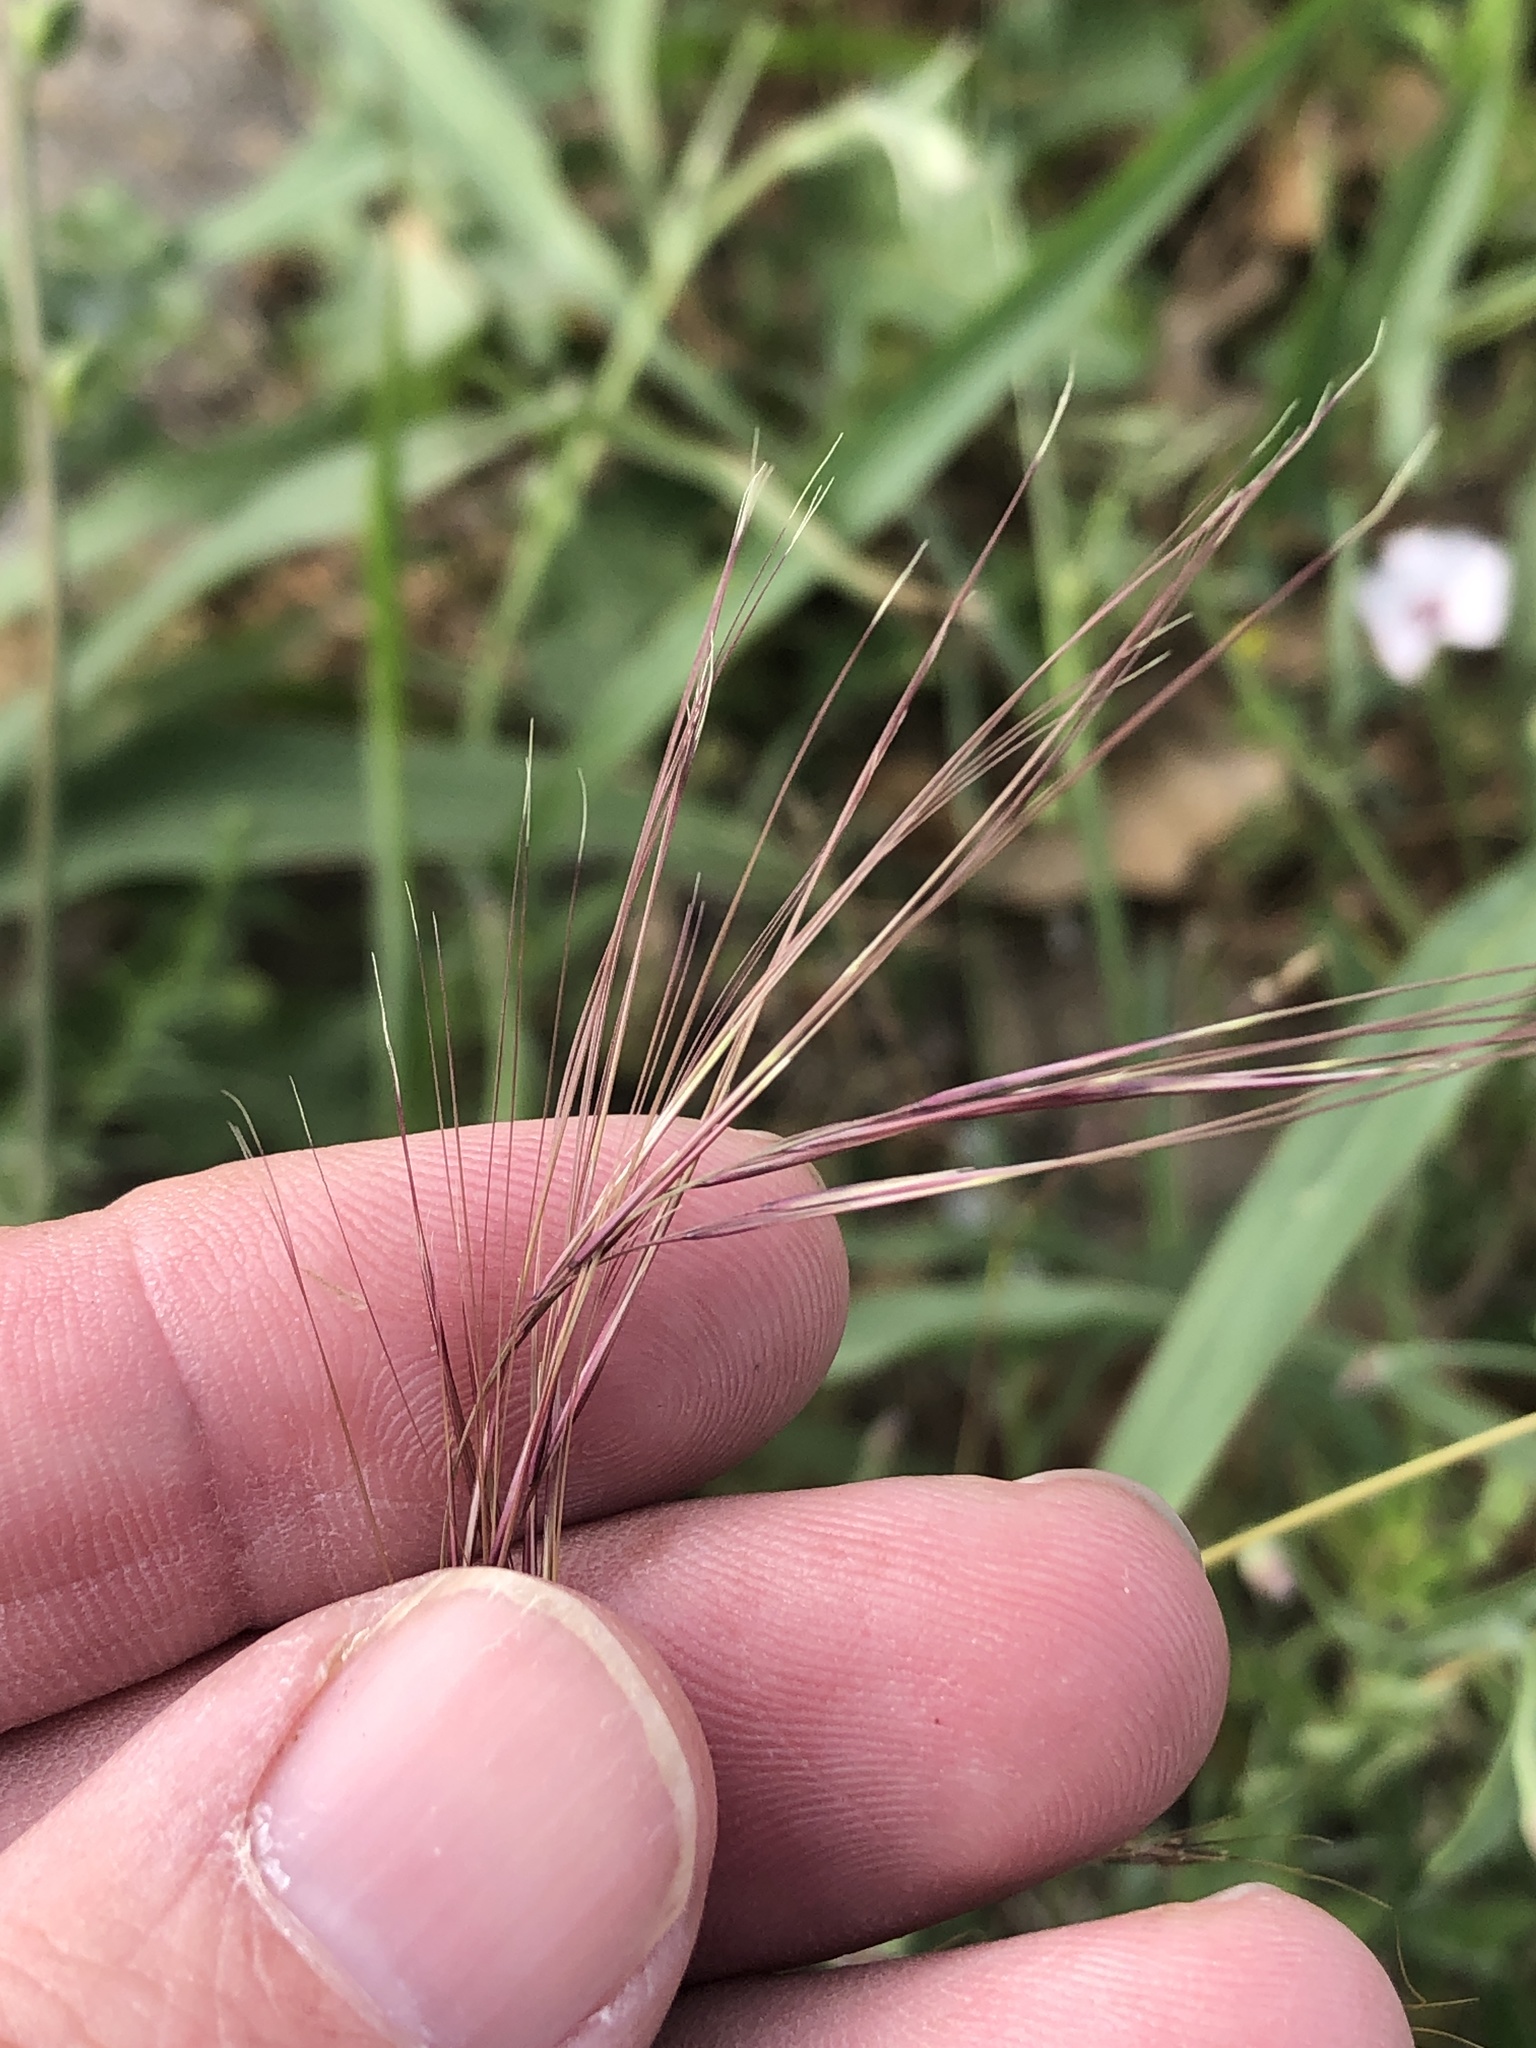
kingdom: Plantae
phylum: Tracheophyta
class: Liliopsida
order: Poales
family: Poaceae
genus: Aristida
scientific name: Aristida purpurea
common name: Purple threeawn
